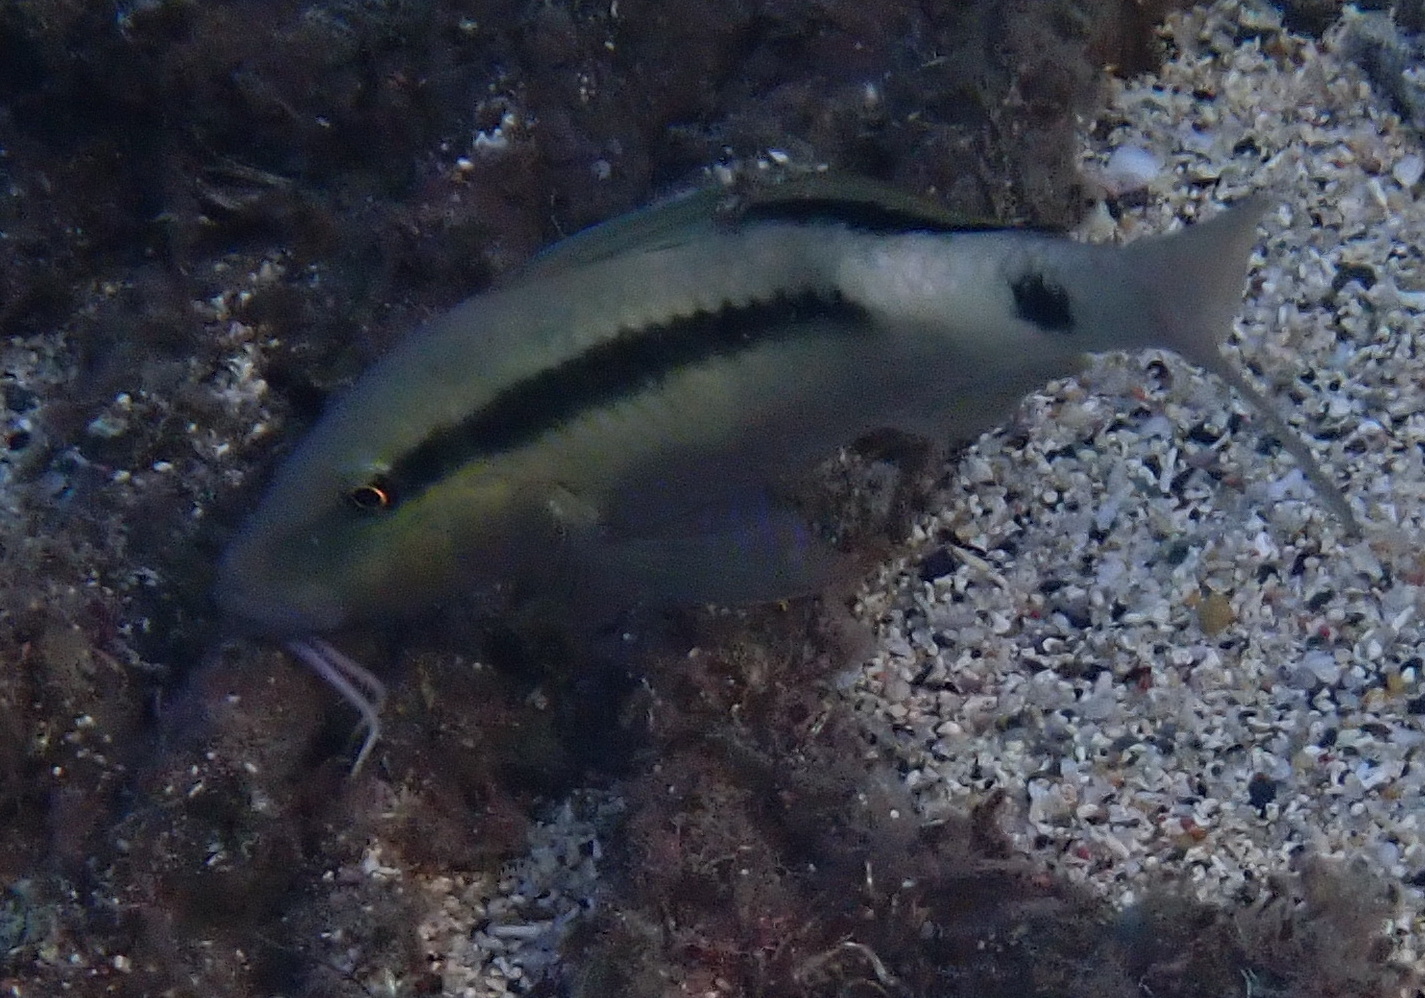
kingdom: Animalia
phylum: Chordata
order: Perciformes
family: Mullidae
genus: Parupeneus
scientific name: Parupeneus macronemus
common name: Long-barbel goatfish
